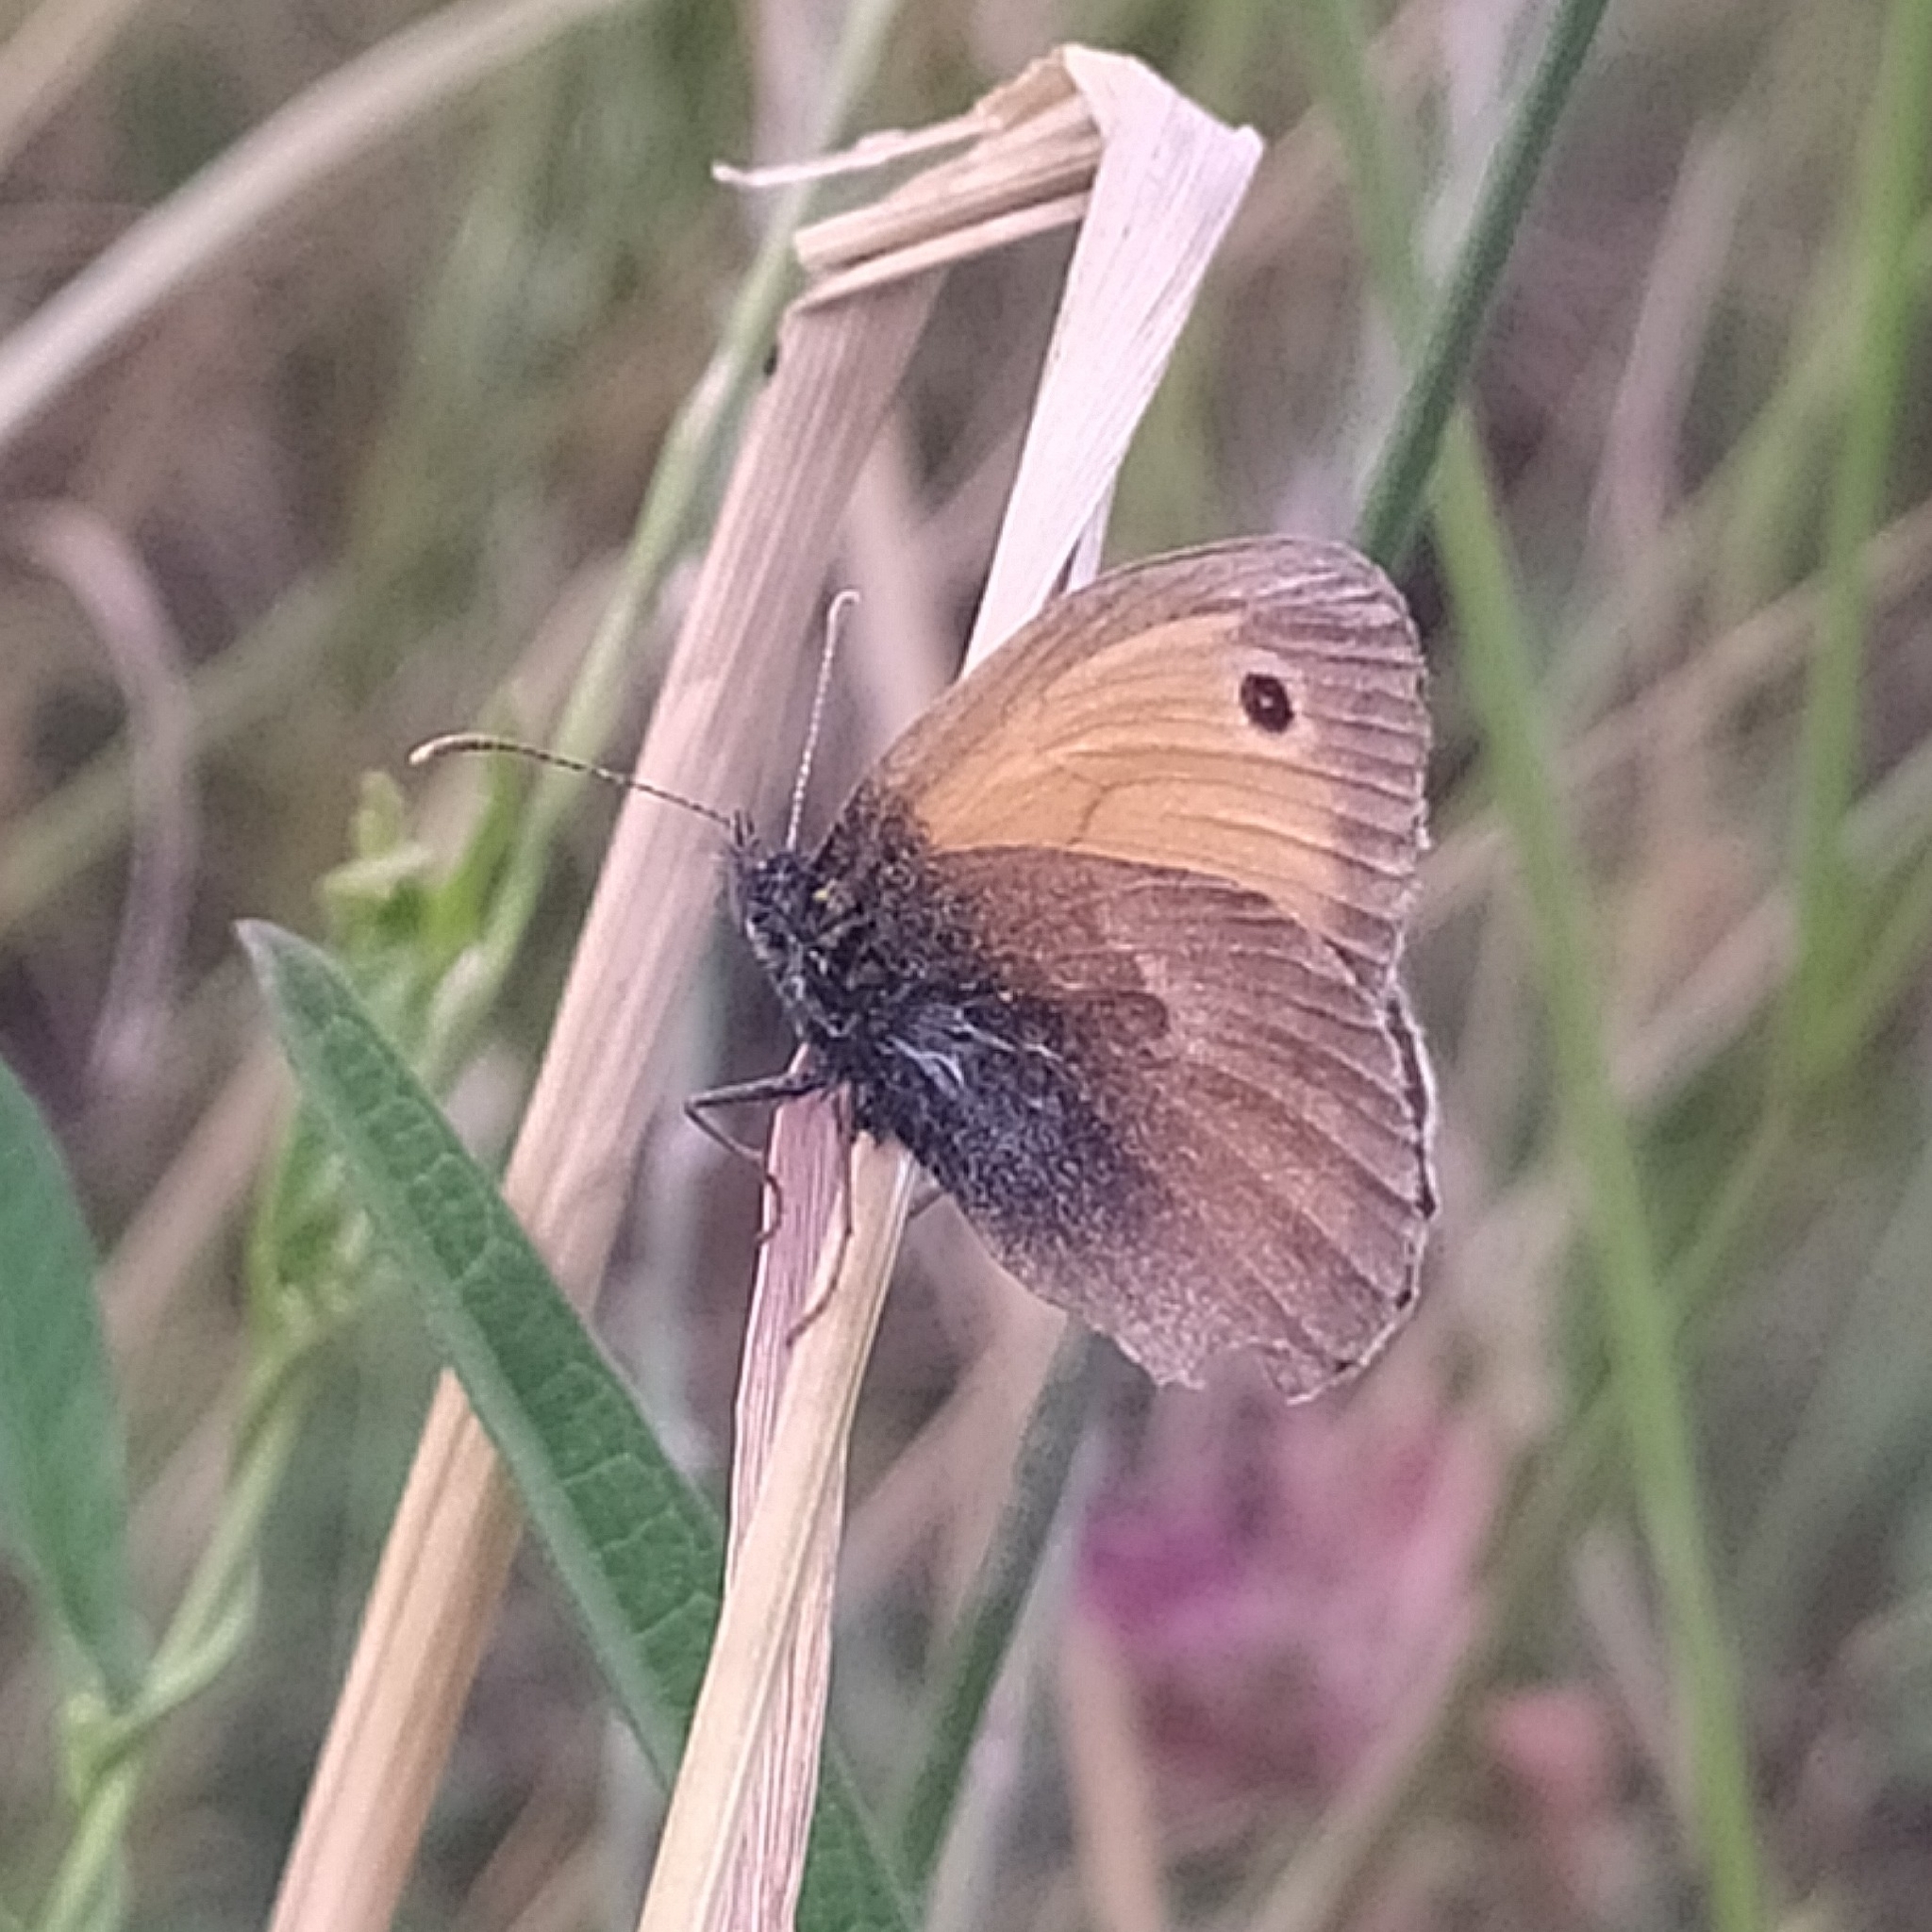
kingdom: Animalia
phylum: Arthropoda
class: Insecta
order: Lepidoptera
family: Nymphalidae
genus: Coenonympha
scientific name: Coenonympha pamphilus
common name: Small heath
